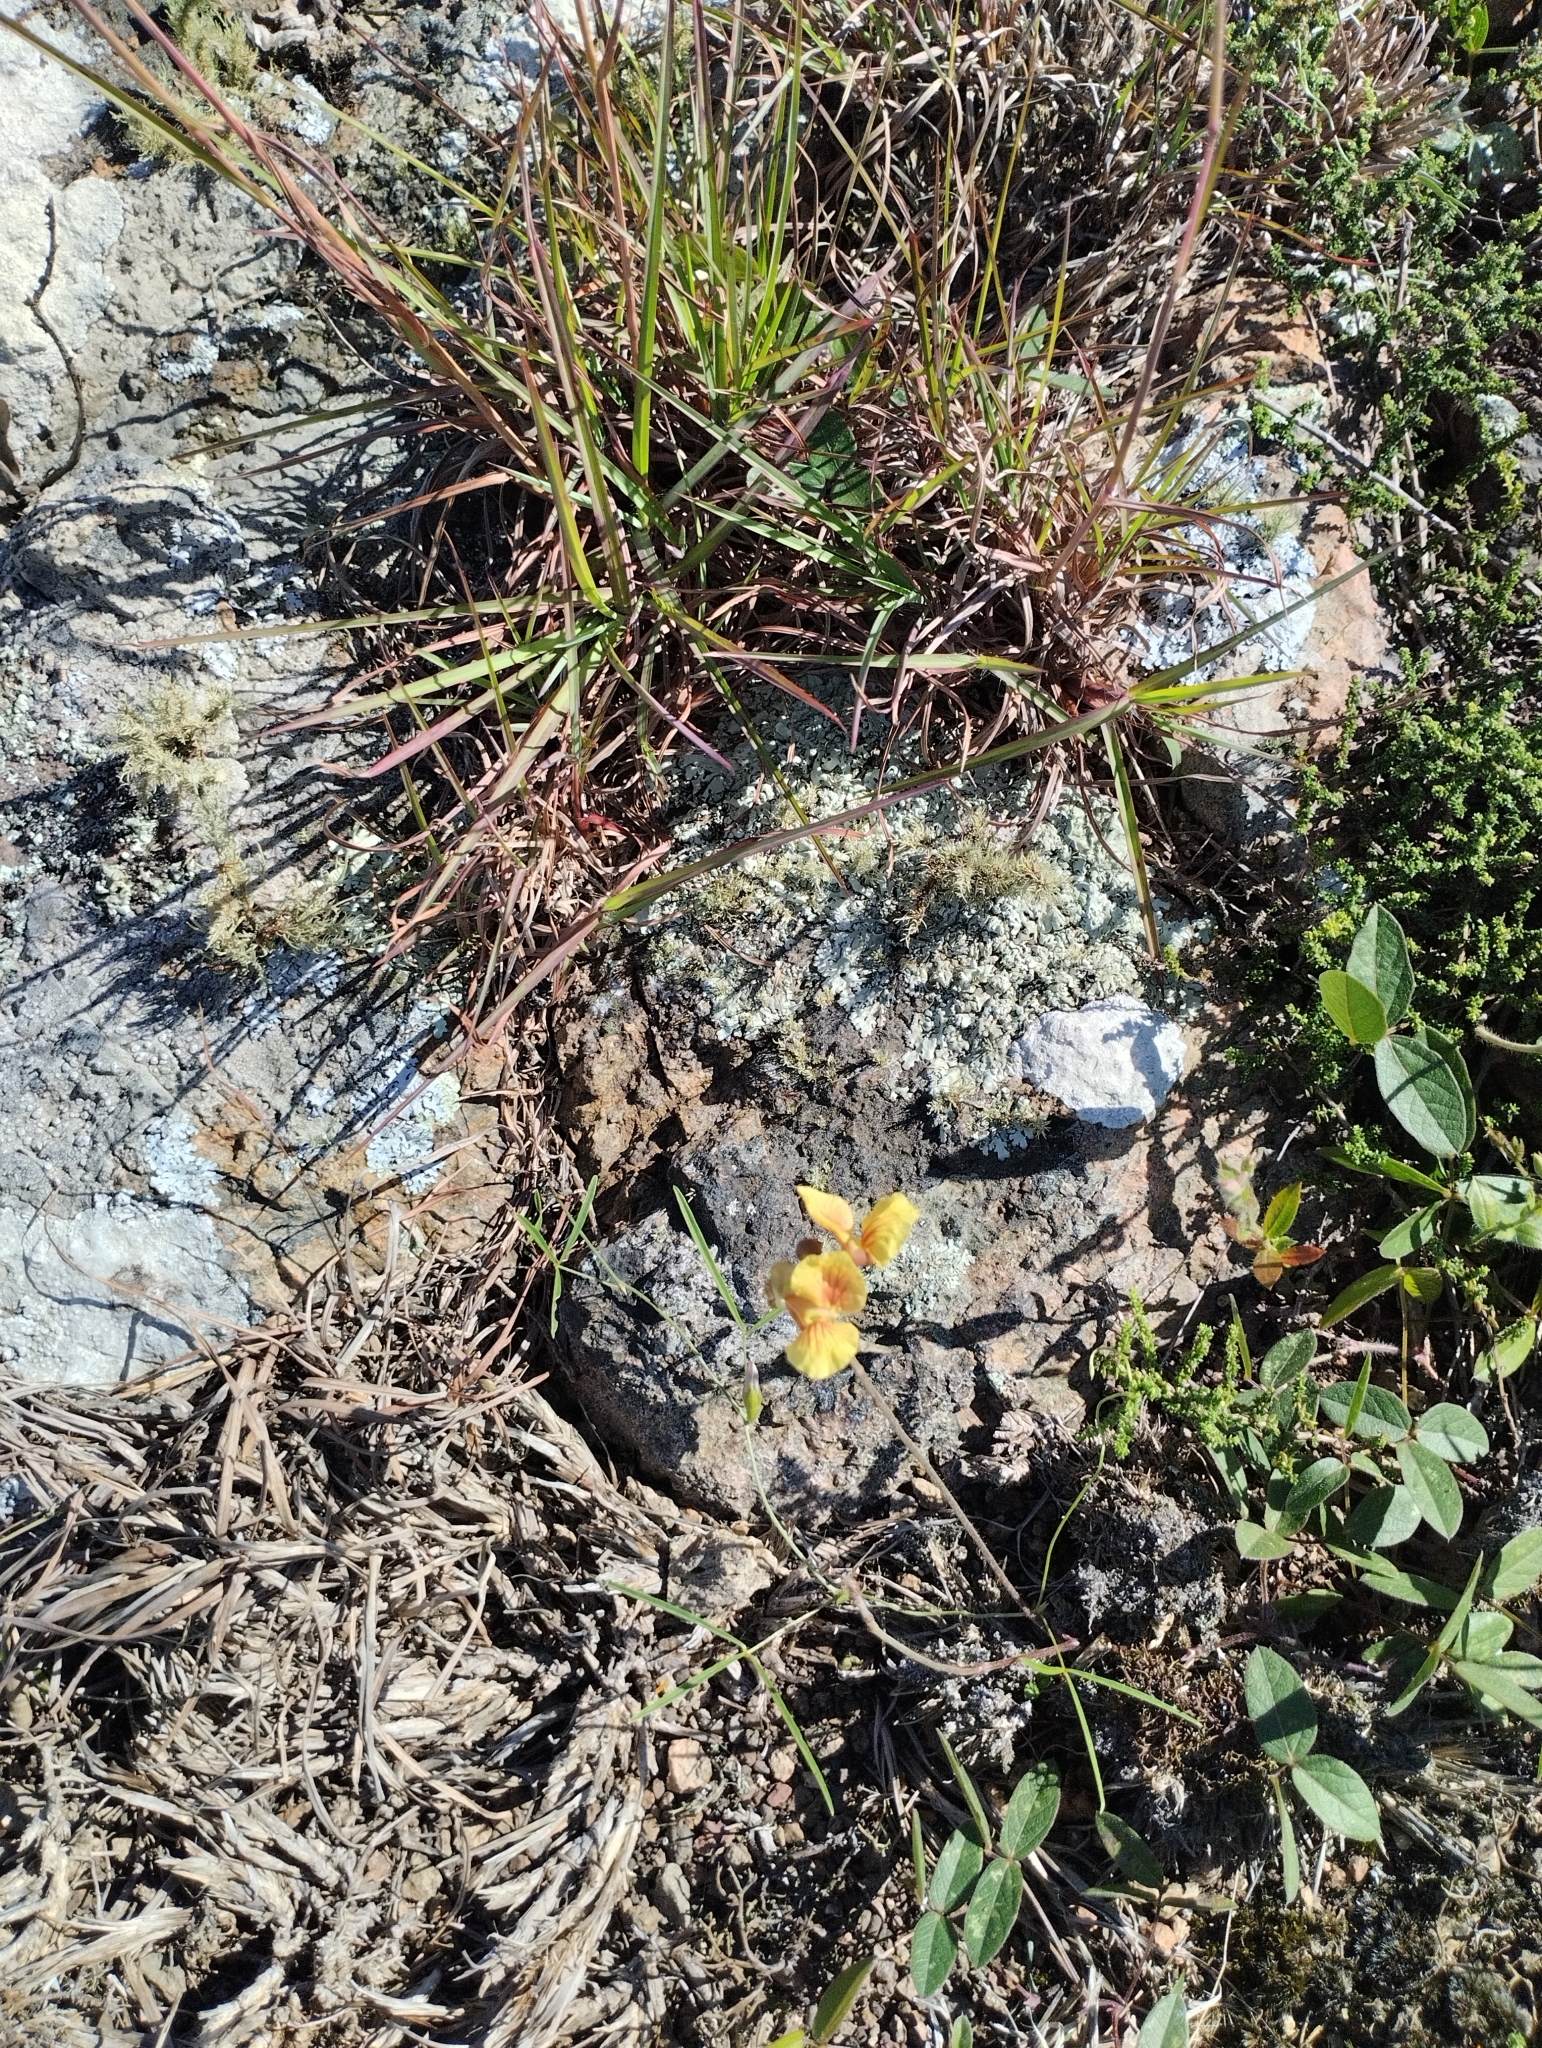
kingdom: Plantae
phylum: Tracheophyta
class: Magnoliopsida
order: Fabales
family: Fabaceae
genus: Macroptilium
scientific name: Macroptilium prostratum
